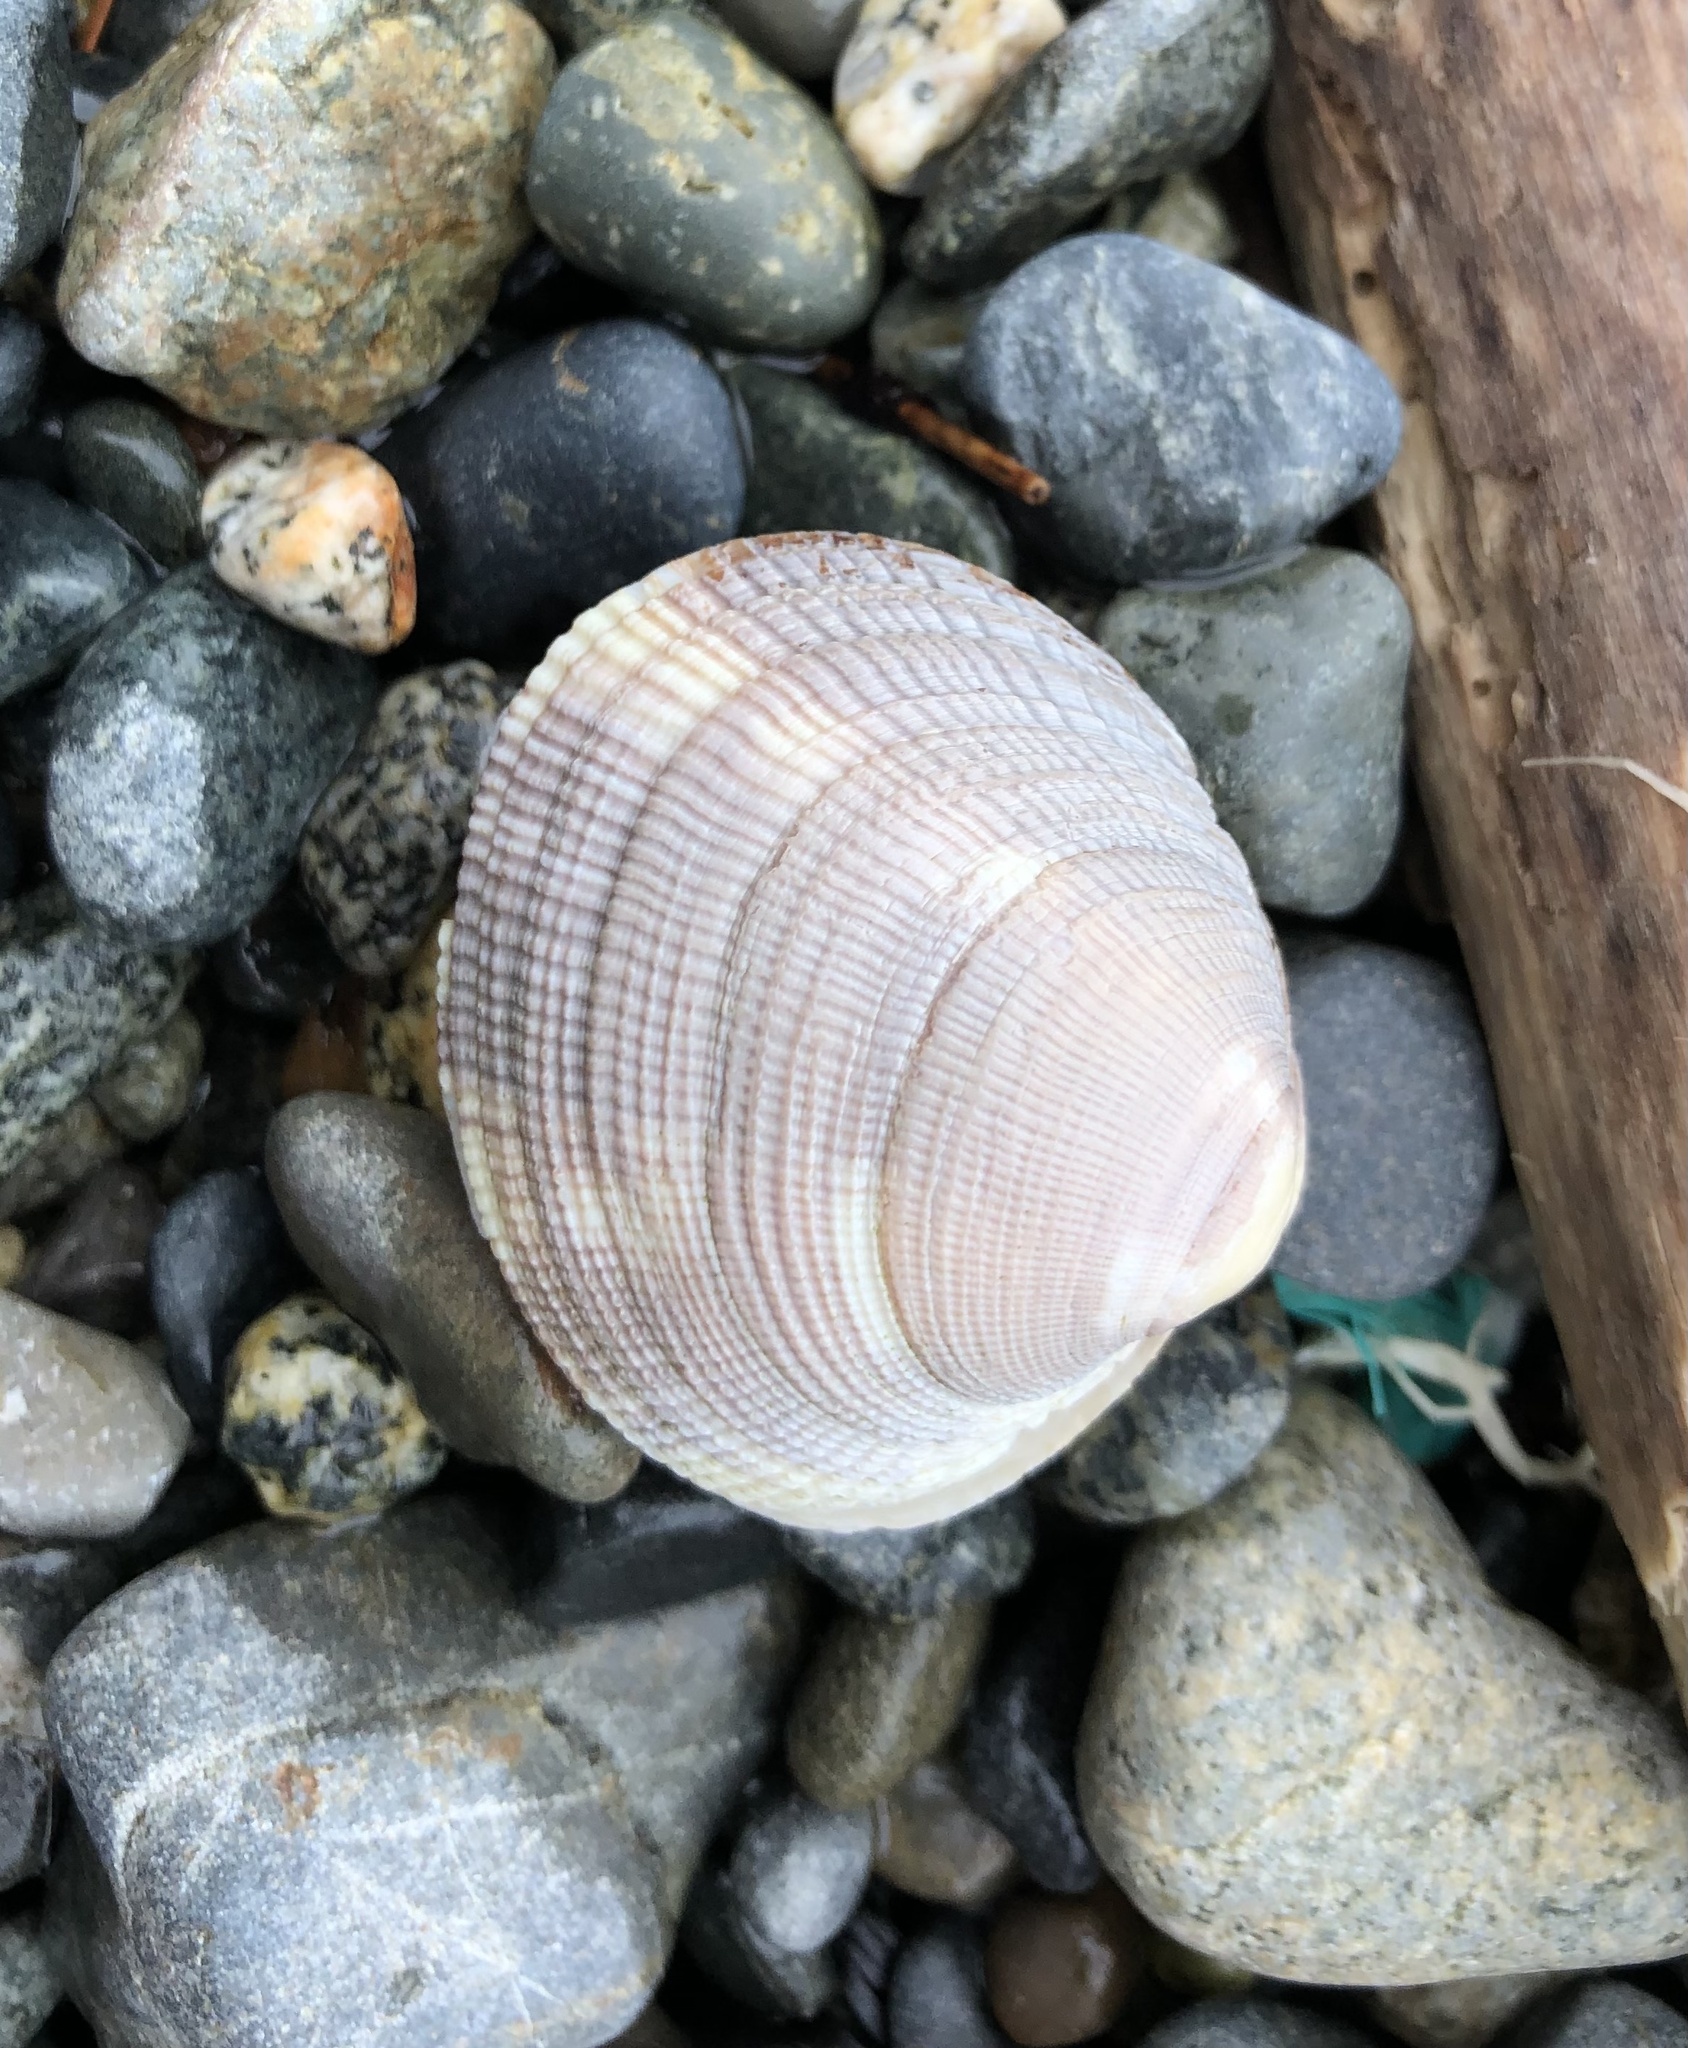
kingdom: Animalia
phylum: Mollusca
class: Bivalvia
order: Venerida
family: Veneridae
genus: Leukoma
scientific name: Leukoma staminea
